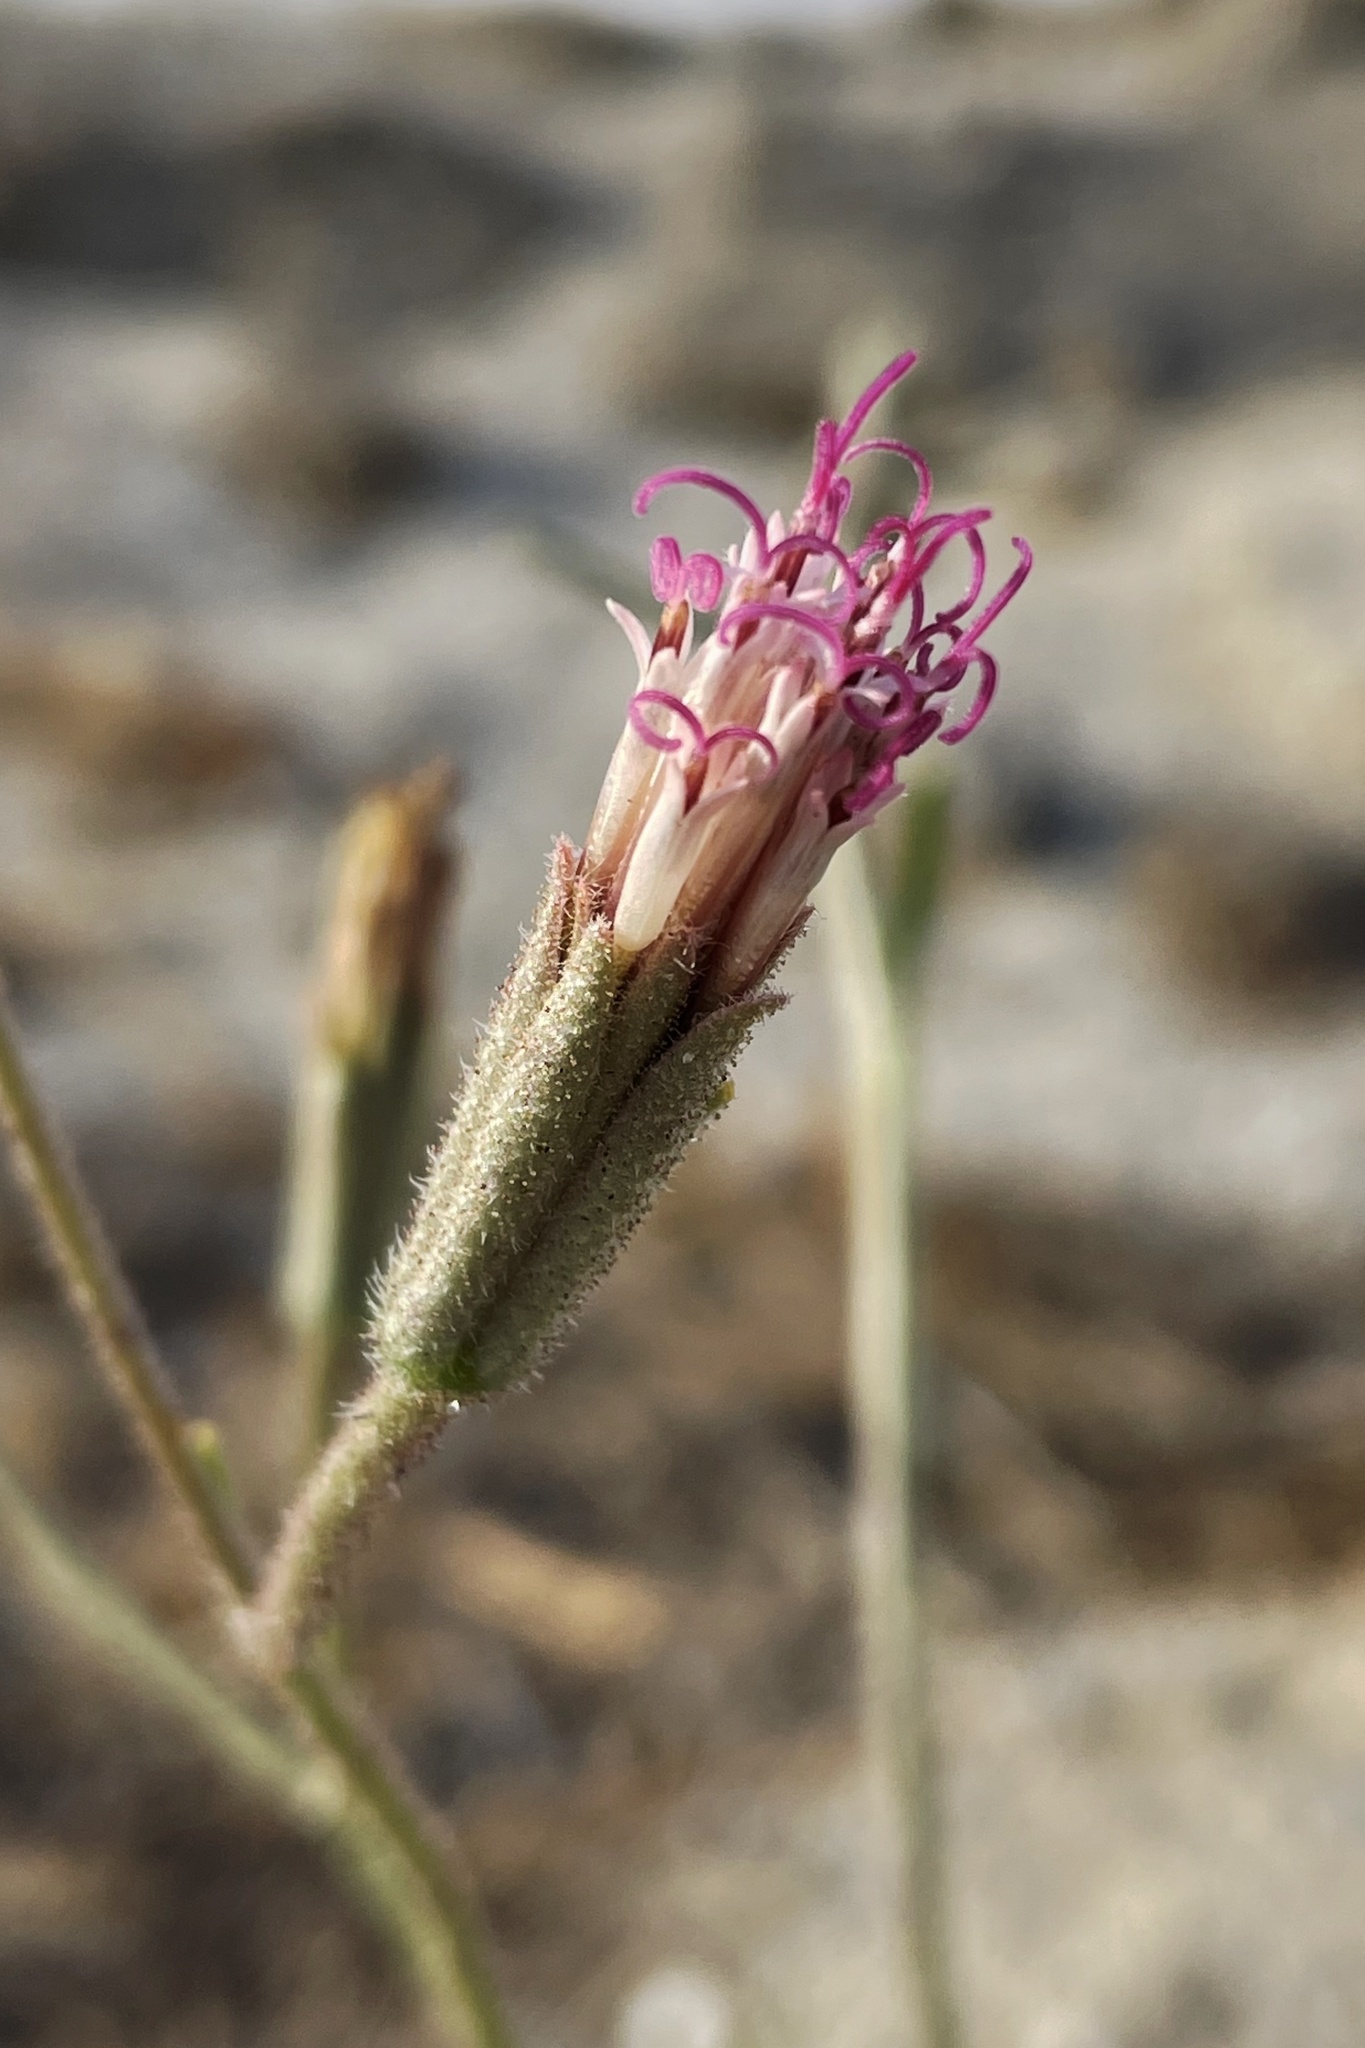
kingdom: Plantae
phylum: Tracheophyta
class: Magnoliopsida
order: Asterales
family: Asteraceae
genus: Palafoxia
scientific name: Palafoxia arida
